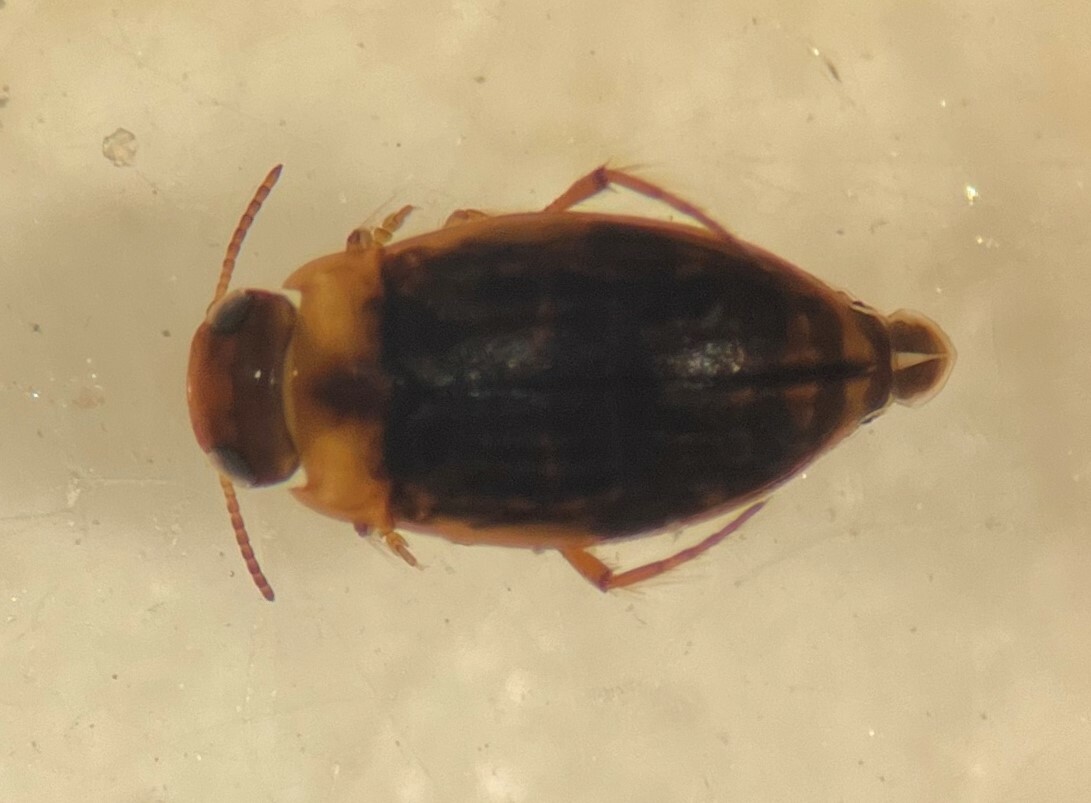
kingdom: Animalia
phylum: Arthropoda
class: Insecta
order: Coleoptera
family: Dytiscidae
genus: Liodessus
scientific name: Liodessus obscurellus
